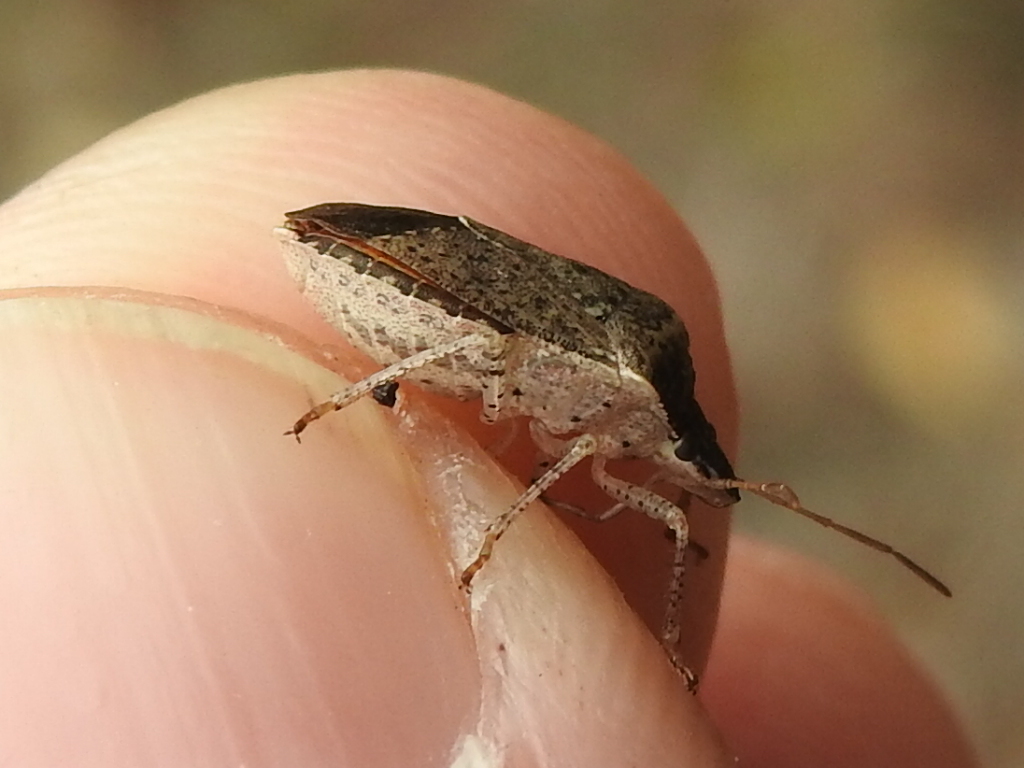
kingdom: Animalia
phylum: Arthropoda
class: Insecta
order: Hemiptera
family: Pentatomidae
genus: Euschistus
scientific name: Euschistus obscurus
